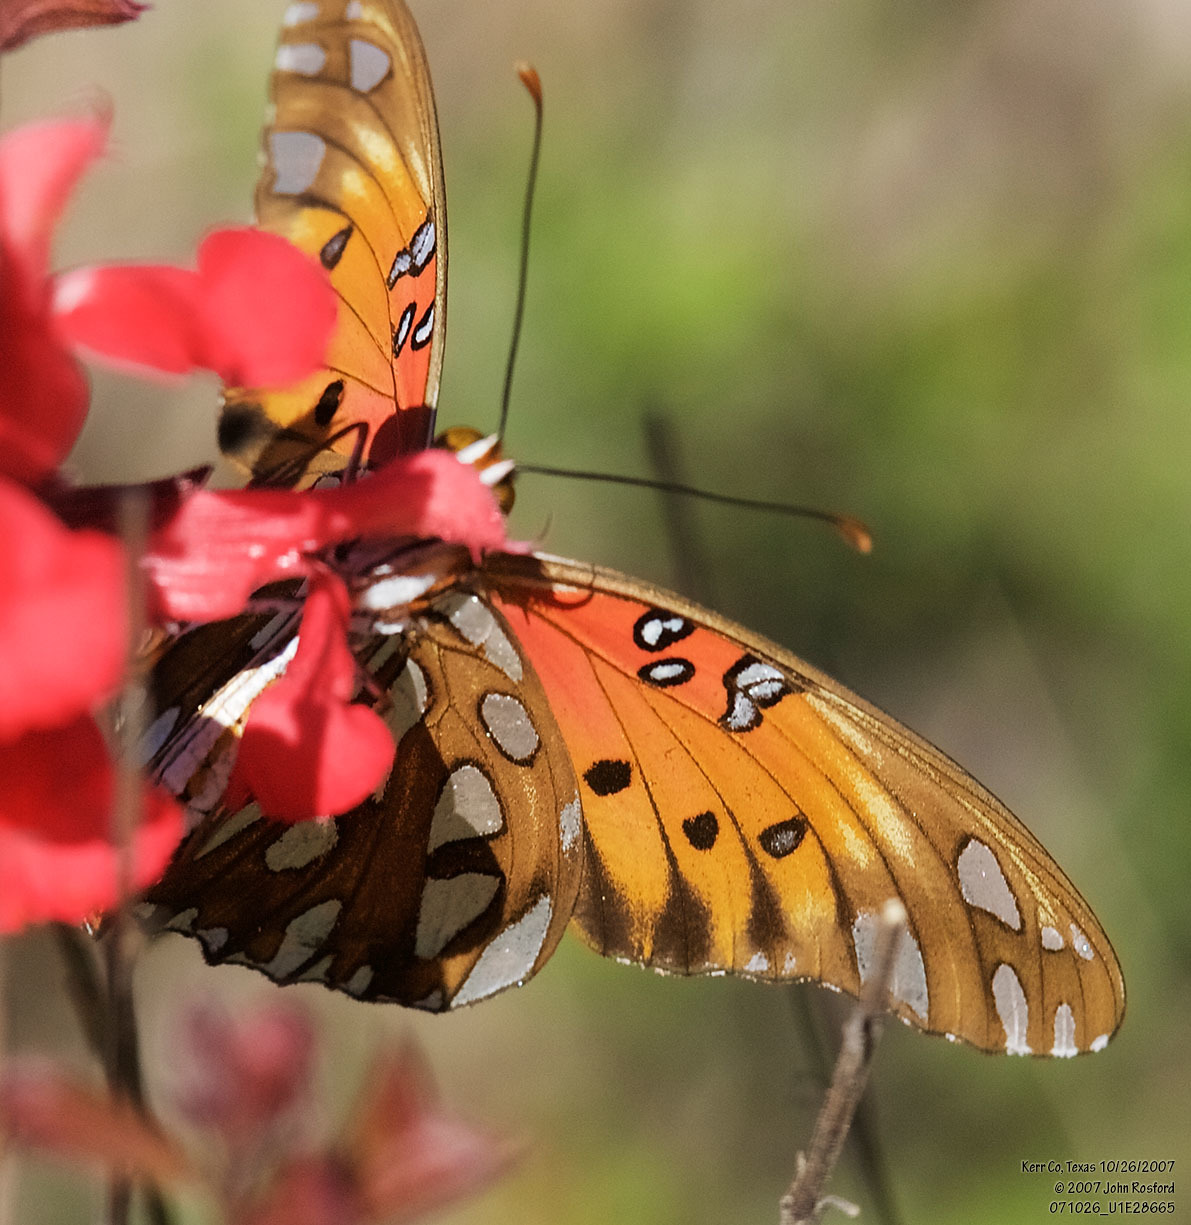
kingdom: Animalia
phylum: Arthropoda
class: Insecta
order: Lepidoptera
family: Nymphalidae
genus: Dione
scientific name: Dione vanillae
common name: Gulf fritillary
